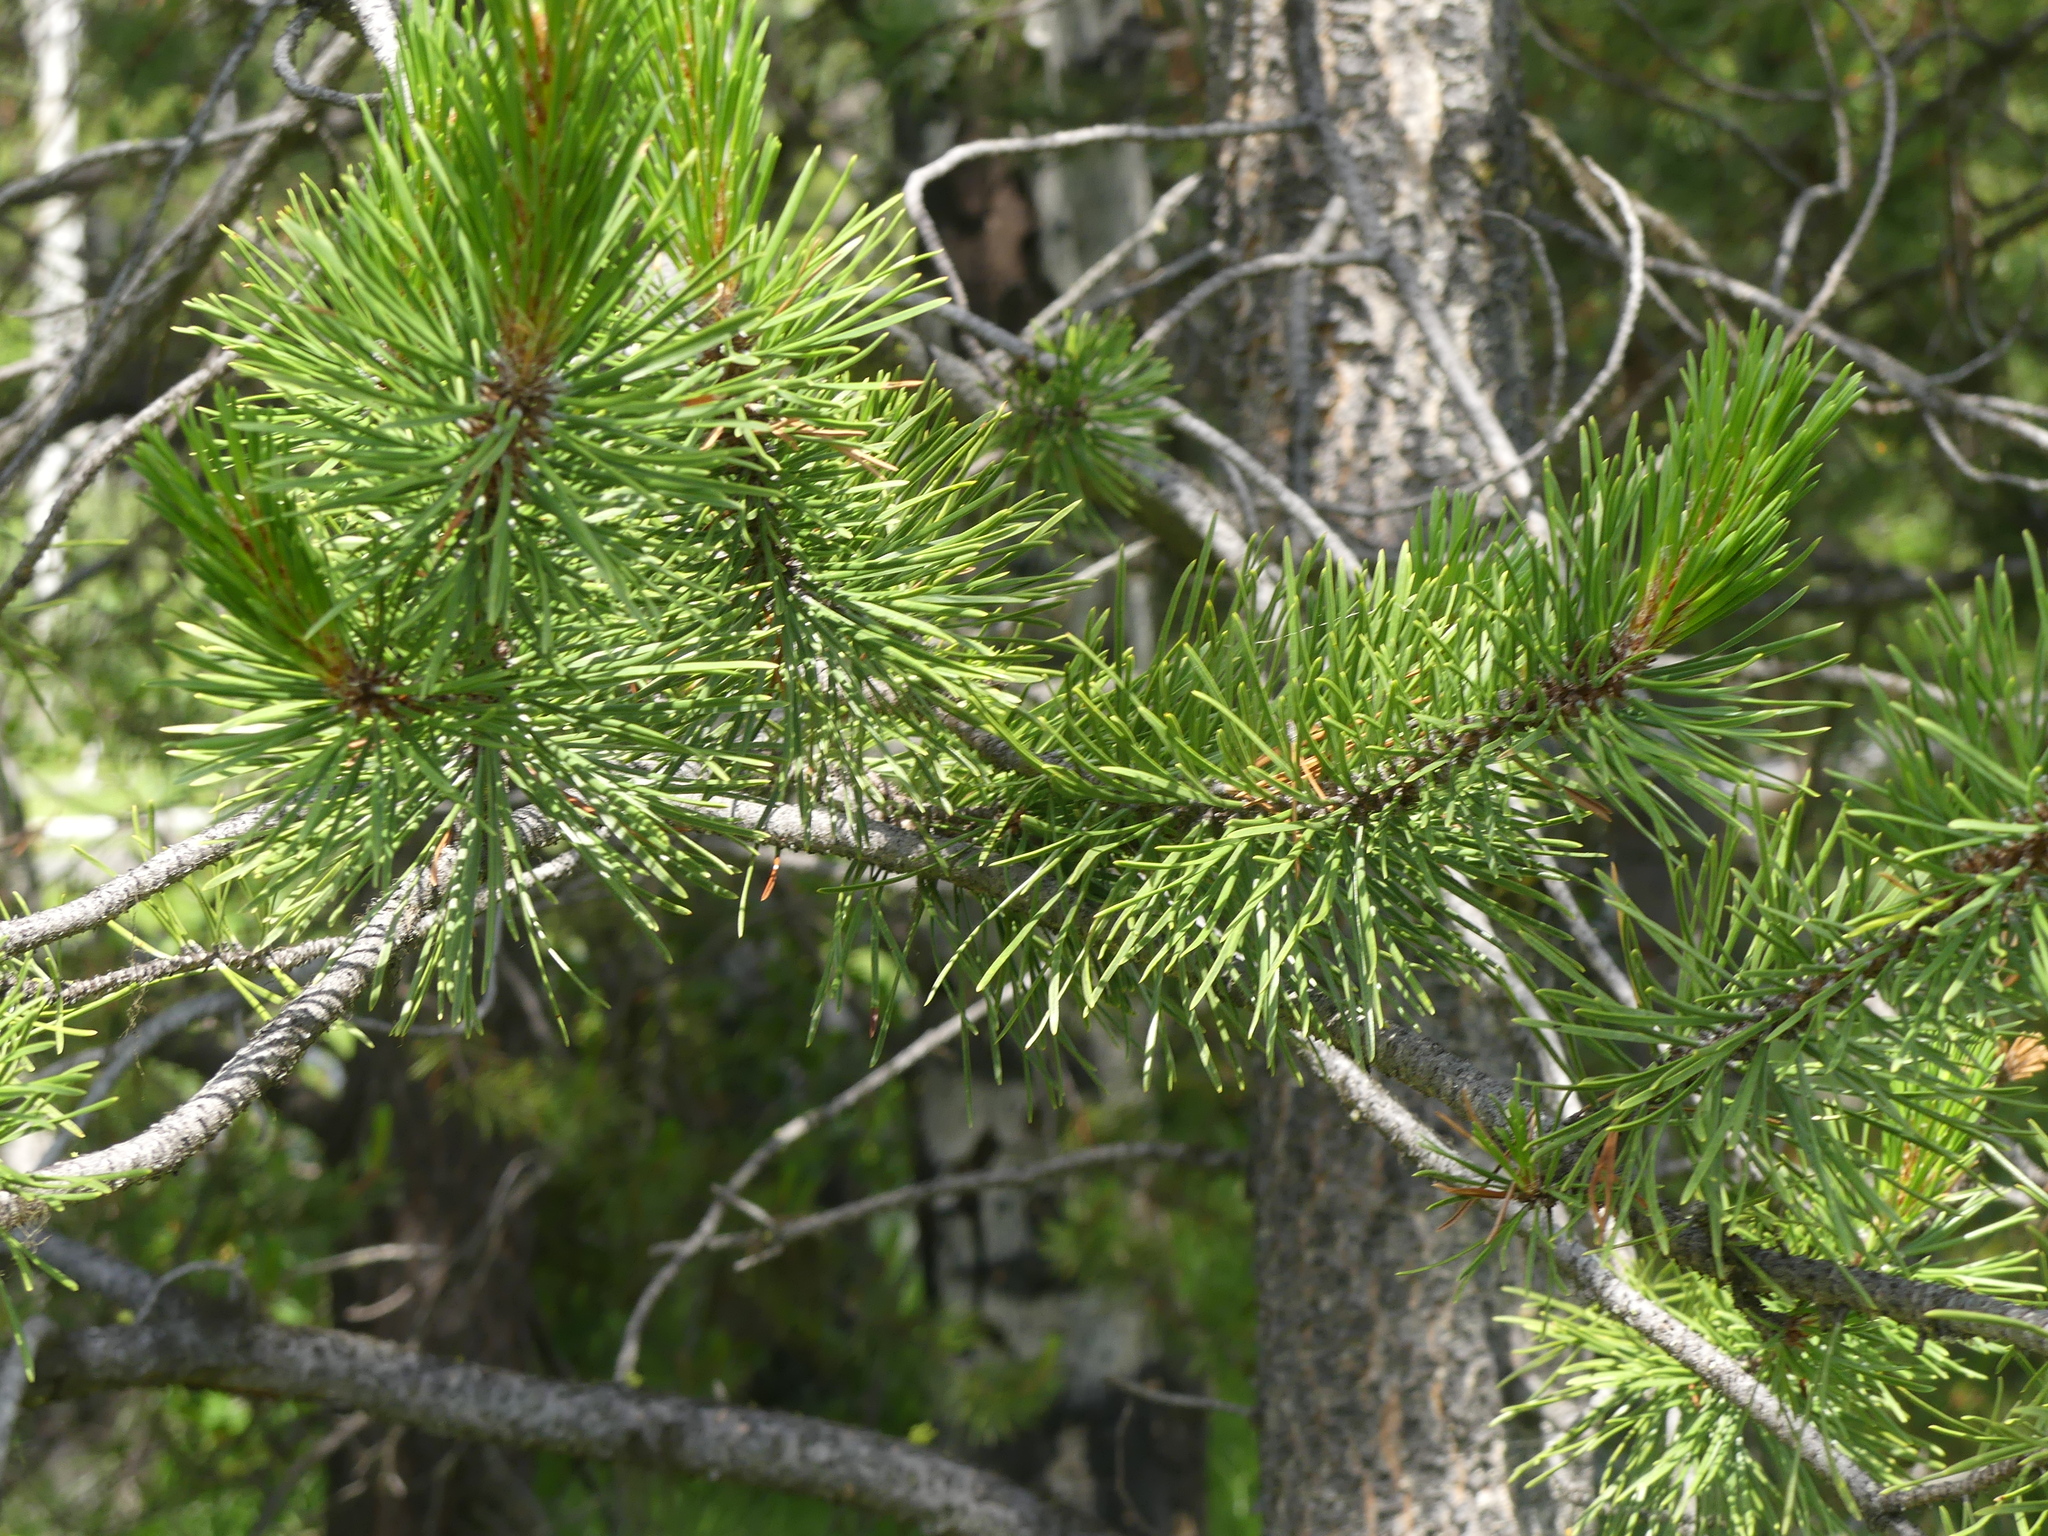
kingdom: Plantae
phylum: Tracheophyta
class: Pinopsida
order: Pinales
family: Pinaceae
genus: Pinus
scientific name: Pinus contorta
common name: Lodgepole pine
